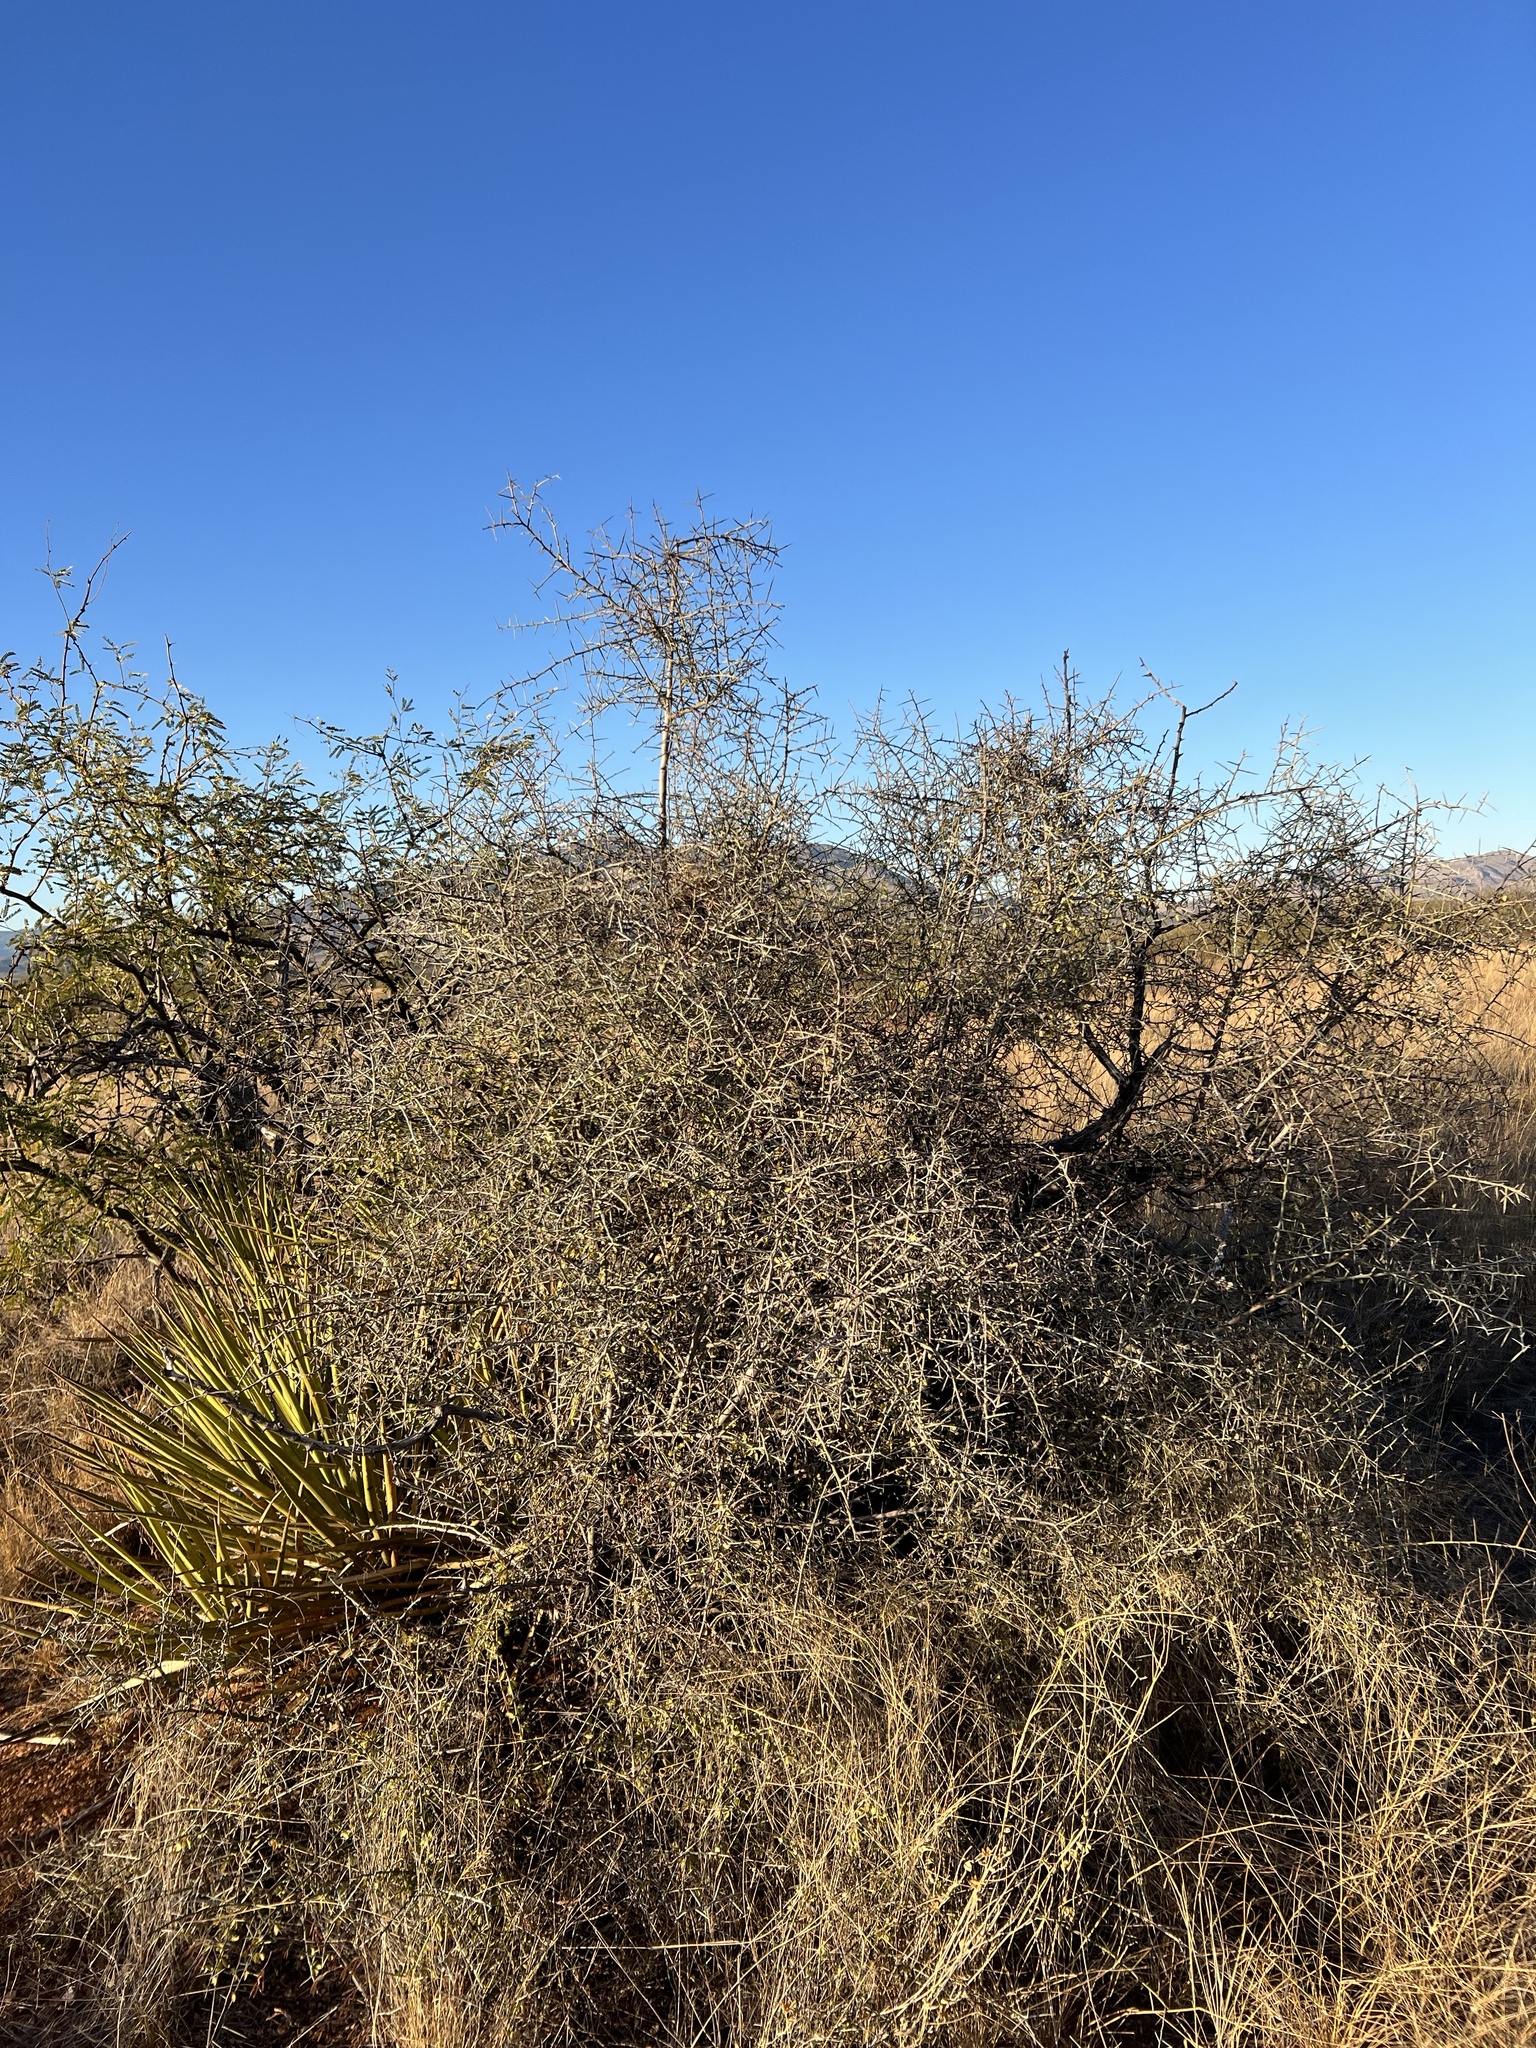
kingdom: Plantae
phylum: Tracheophyta
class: Magnoliopsida
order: Rosales
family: Rhamnaceae
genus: Sarcomphalus
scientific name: Sarcomphalus obtusifolius
